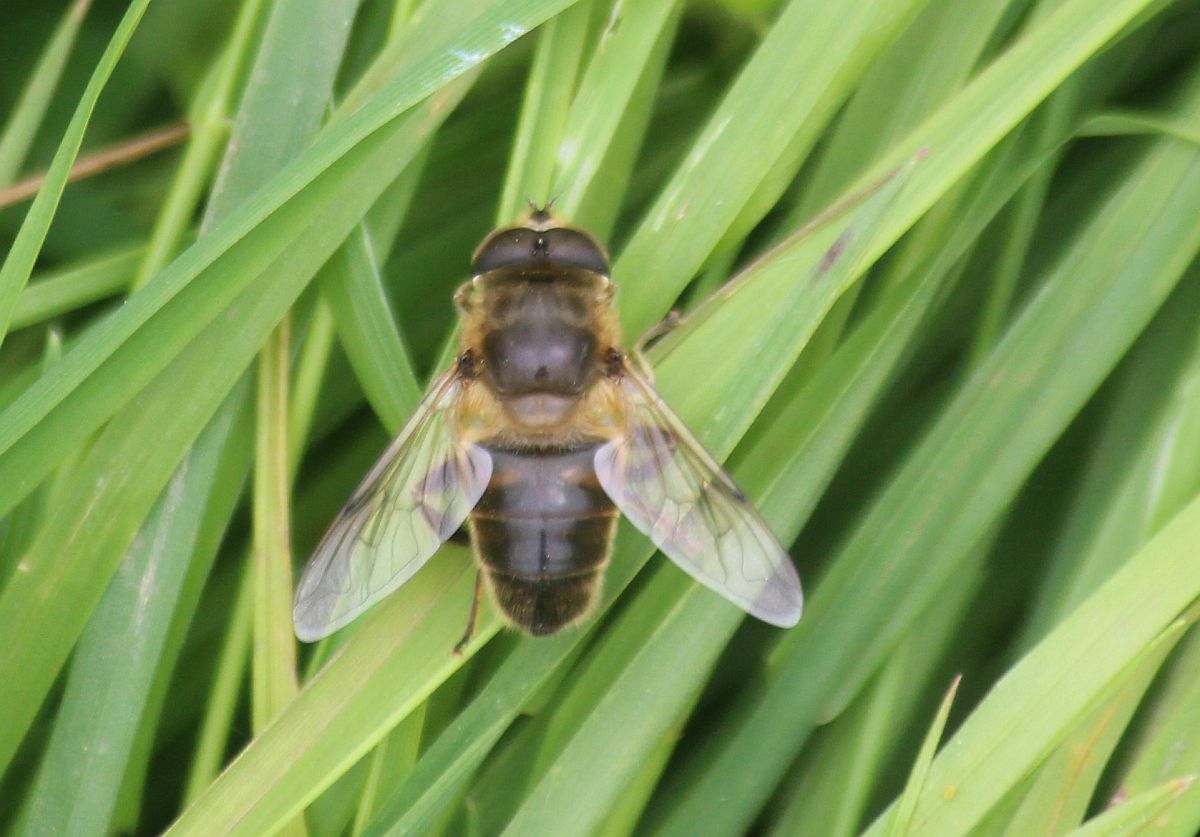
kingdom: Animalia
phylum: Arthropoda
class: Insecta
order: Diptera
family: Syrphidae
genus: Eristalis
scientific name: Eristalis tenax
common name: Drone fly
